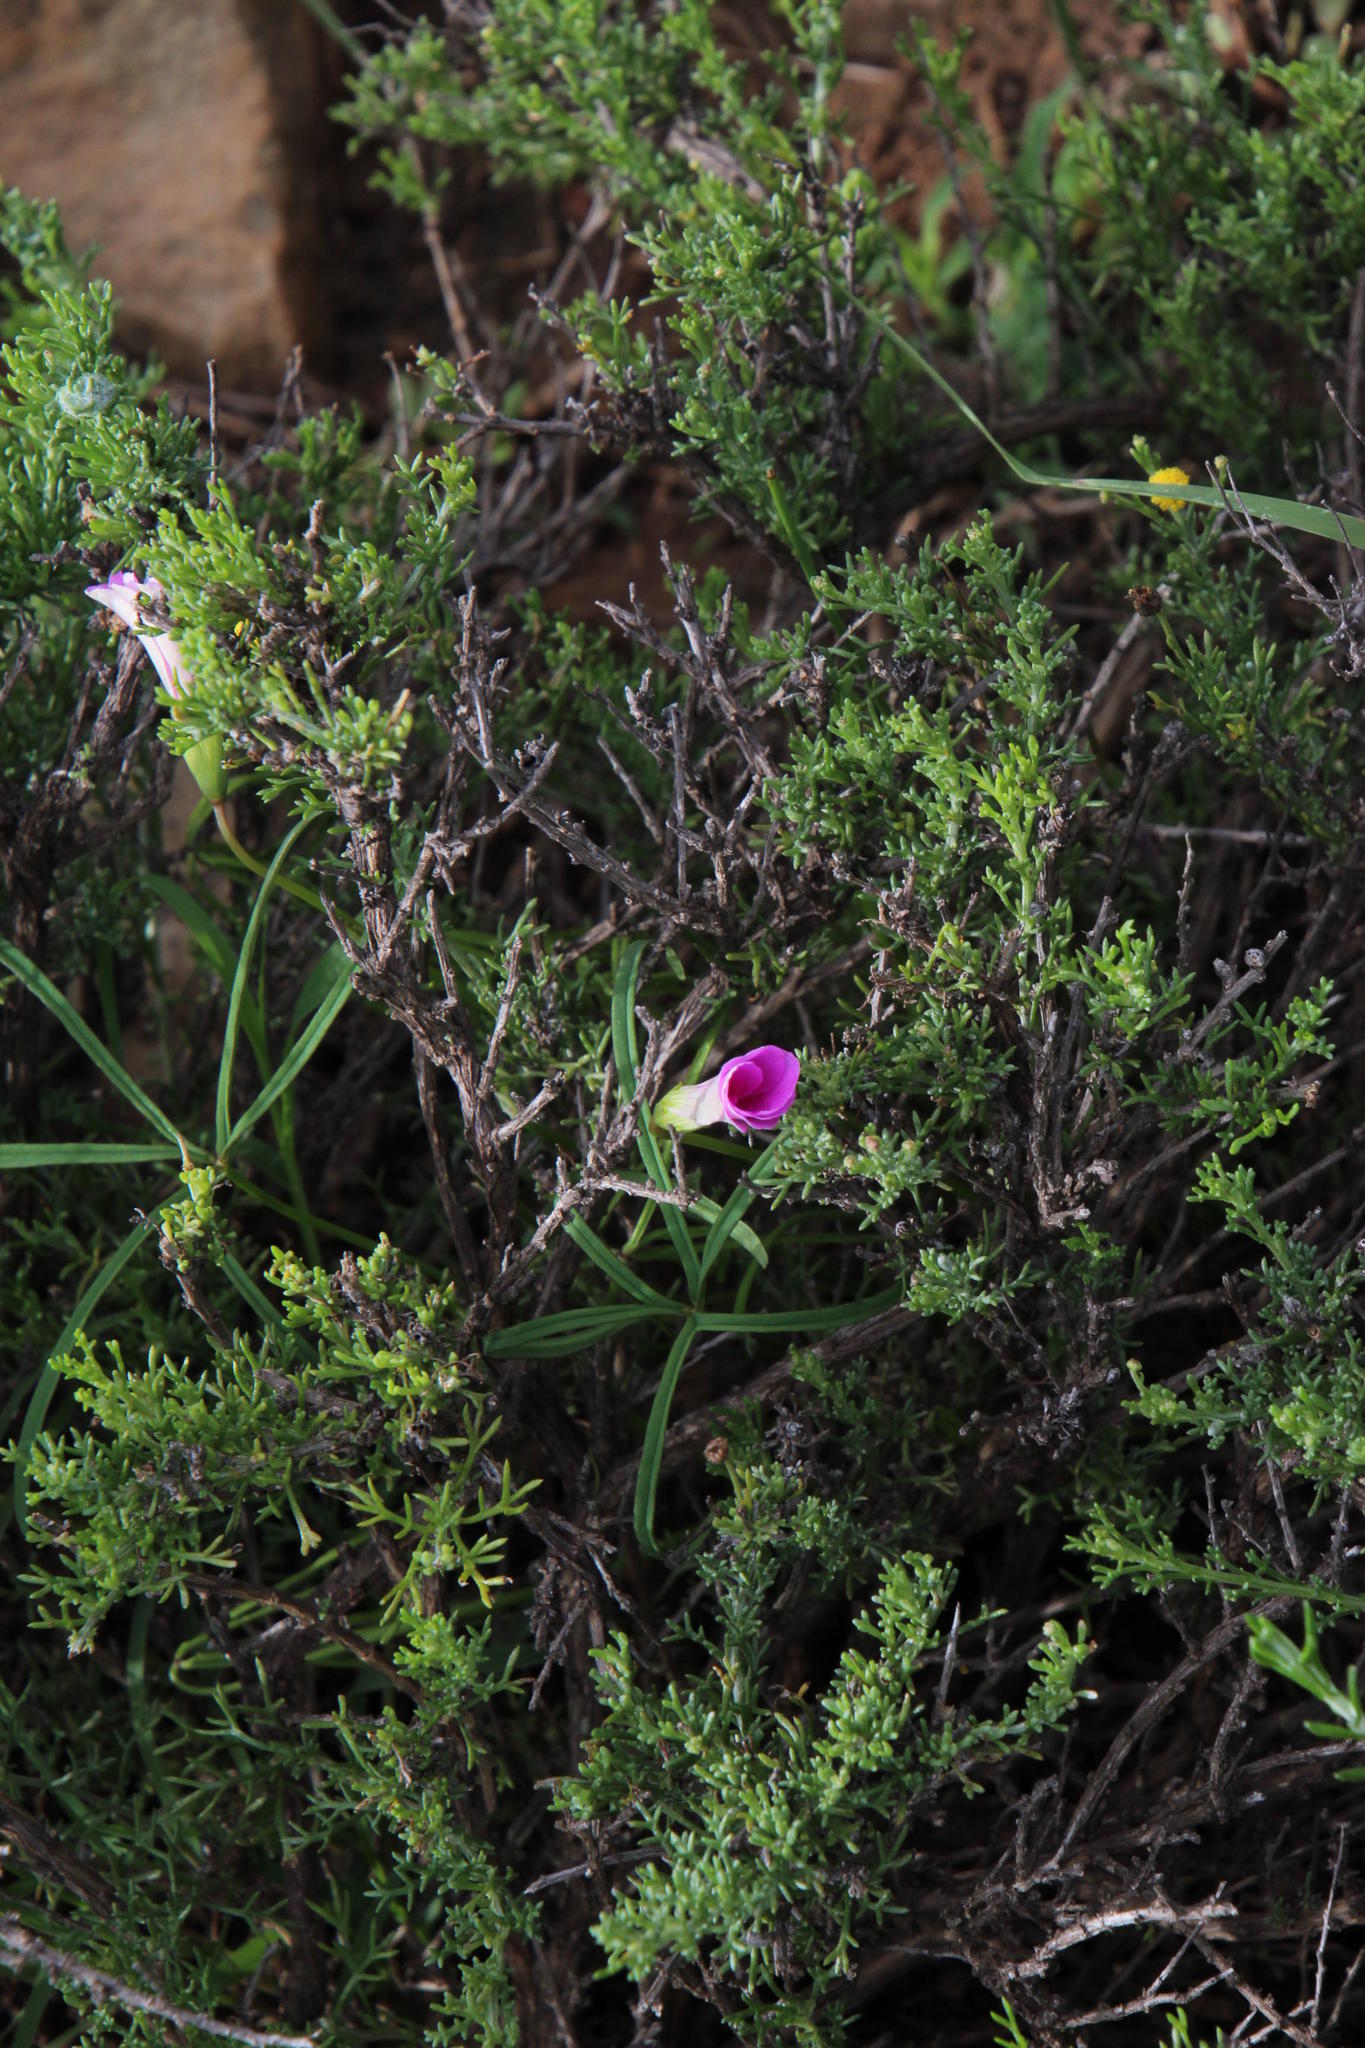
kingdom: Plantae
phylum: Tracheophyta
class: Magnoliopsida
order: Oxalidales
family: Oxalidaceae
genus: Oxalis
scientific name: Oxalis smithiana
